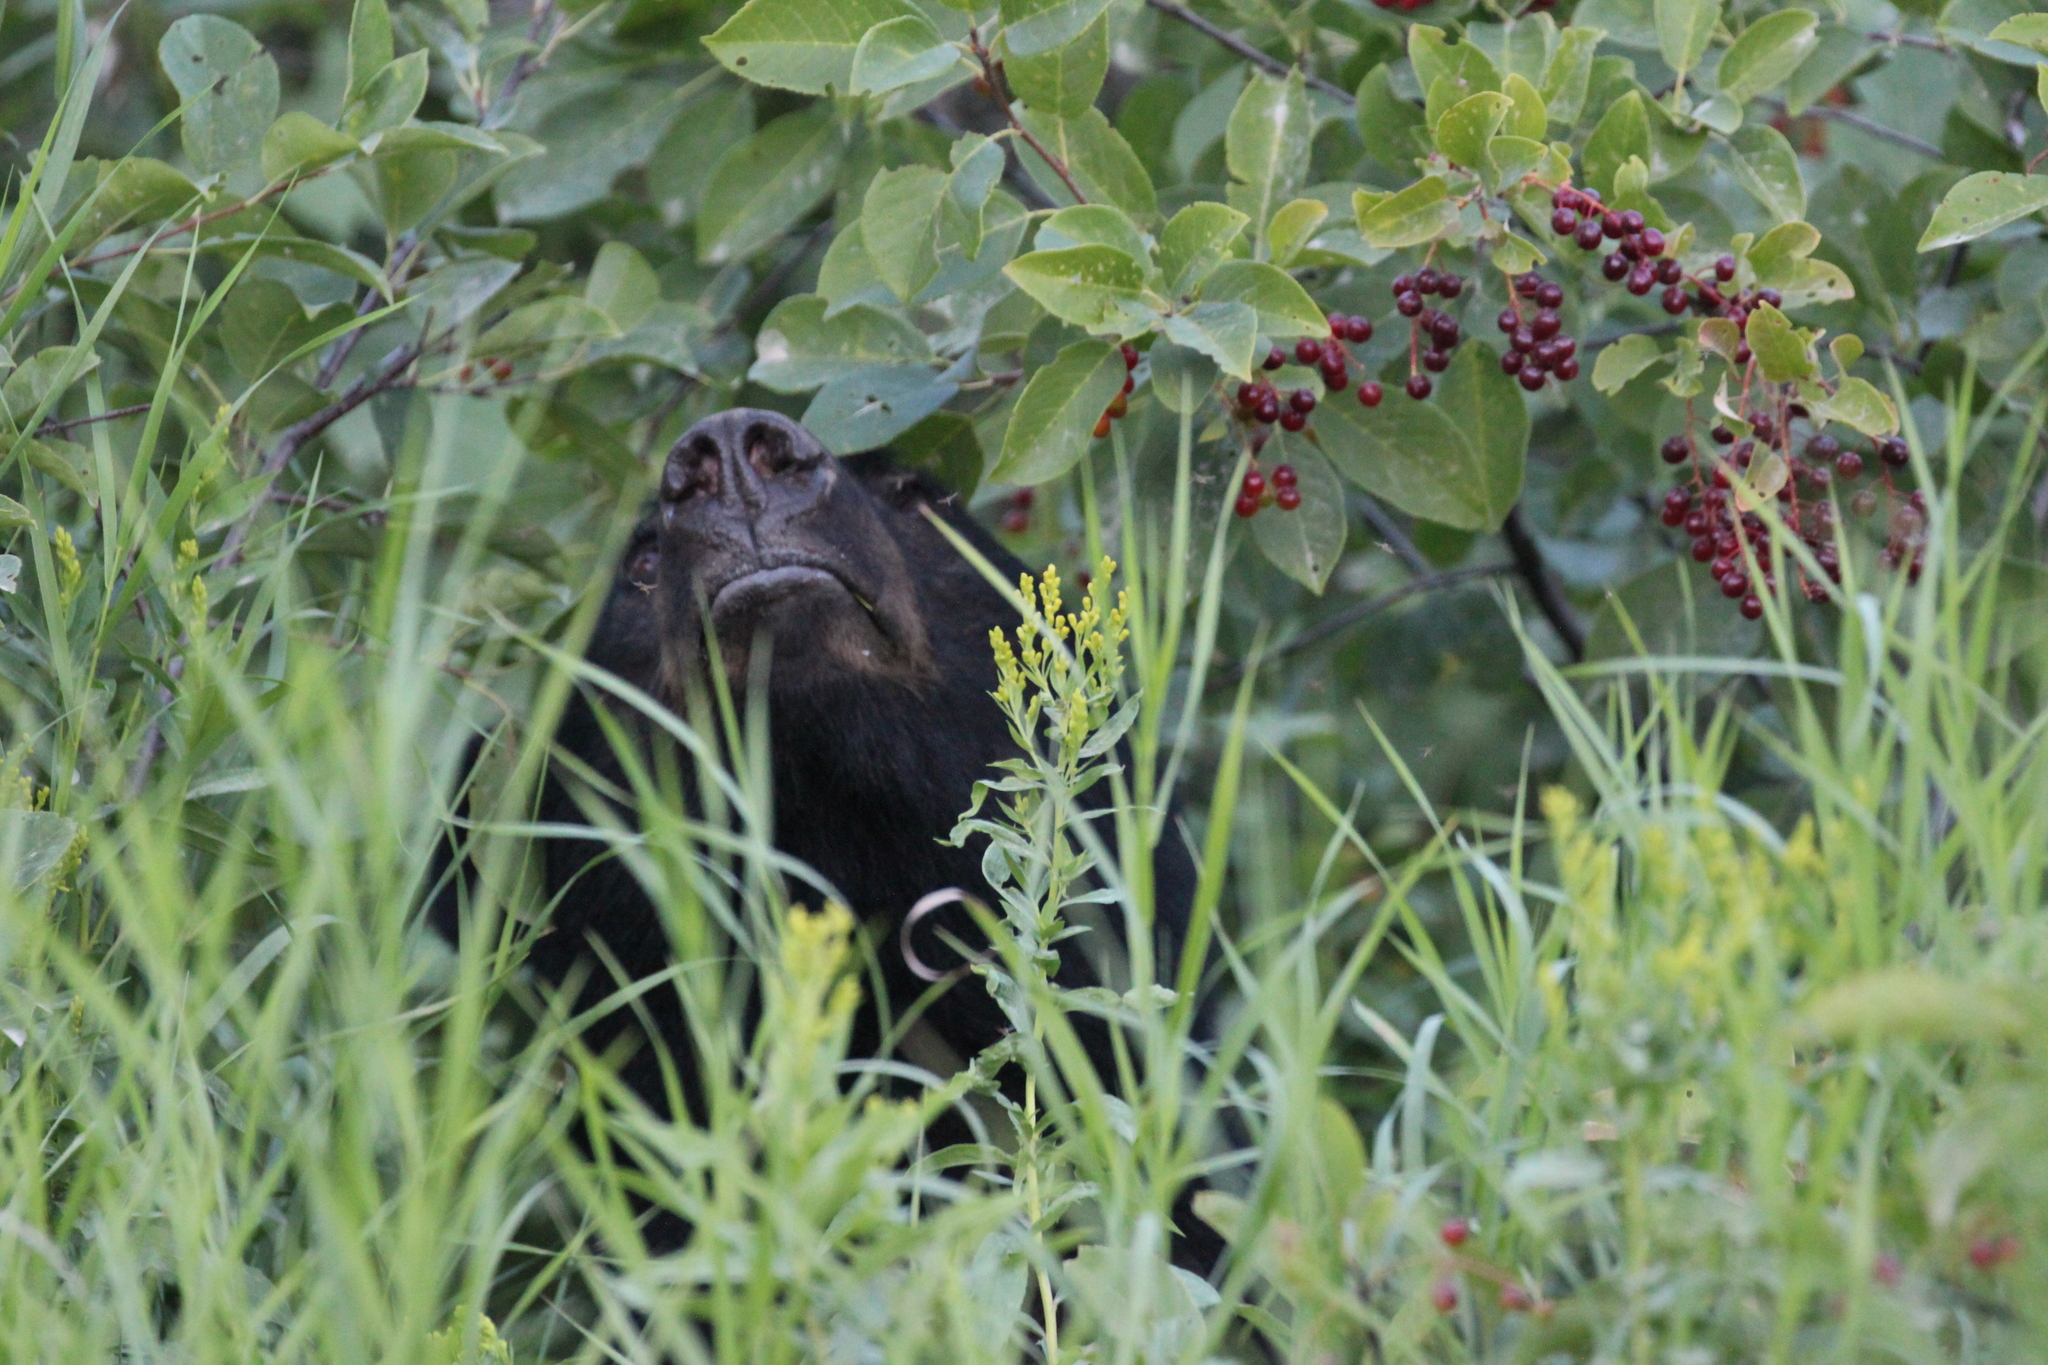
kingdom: Animalia
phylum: Chordata
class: Mammalia
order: Carnivora
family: Ursidae
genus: Ursus
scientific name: Ursus americanus
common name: American black bear
